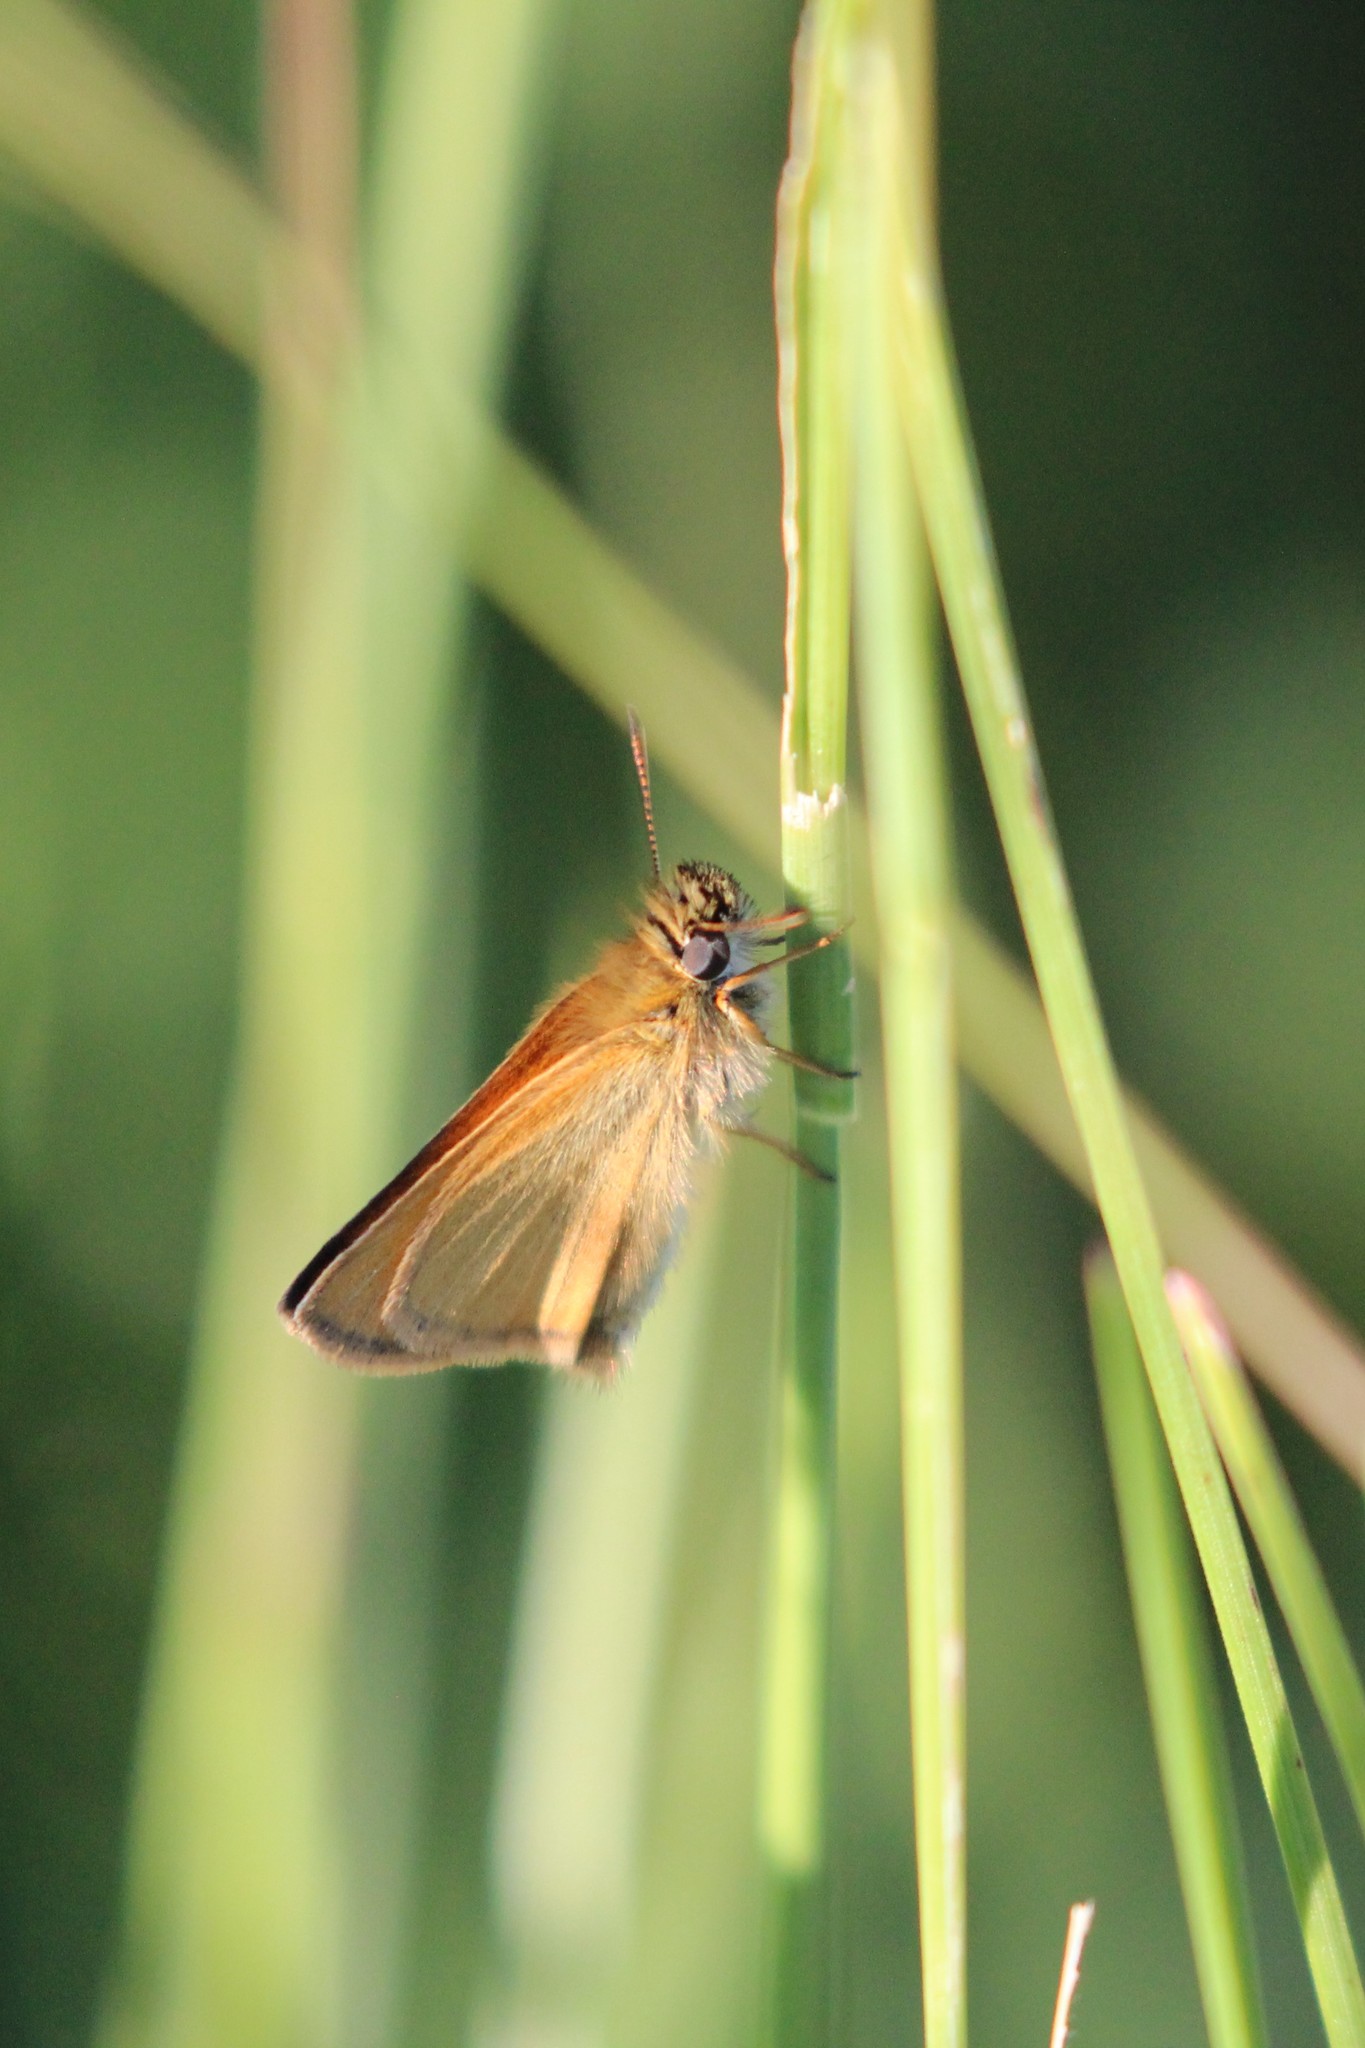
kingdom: Animalia
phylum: Arthropoda
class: Insecta
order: Lepidoptera
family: Hesperiidae
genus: Thymelicus
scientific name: Thymelicus lineola
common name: Essex skipper
